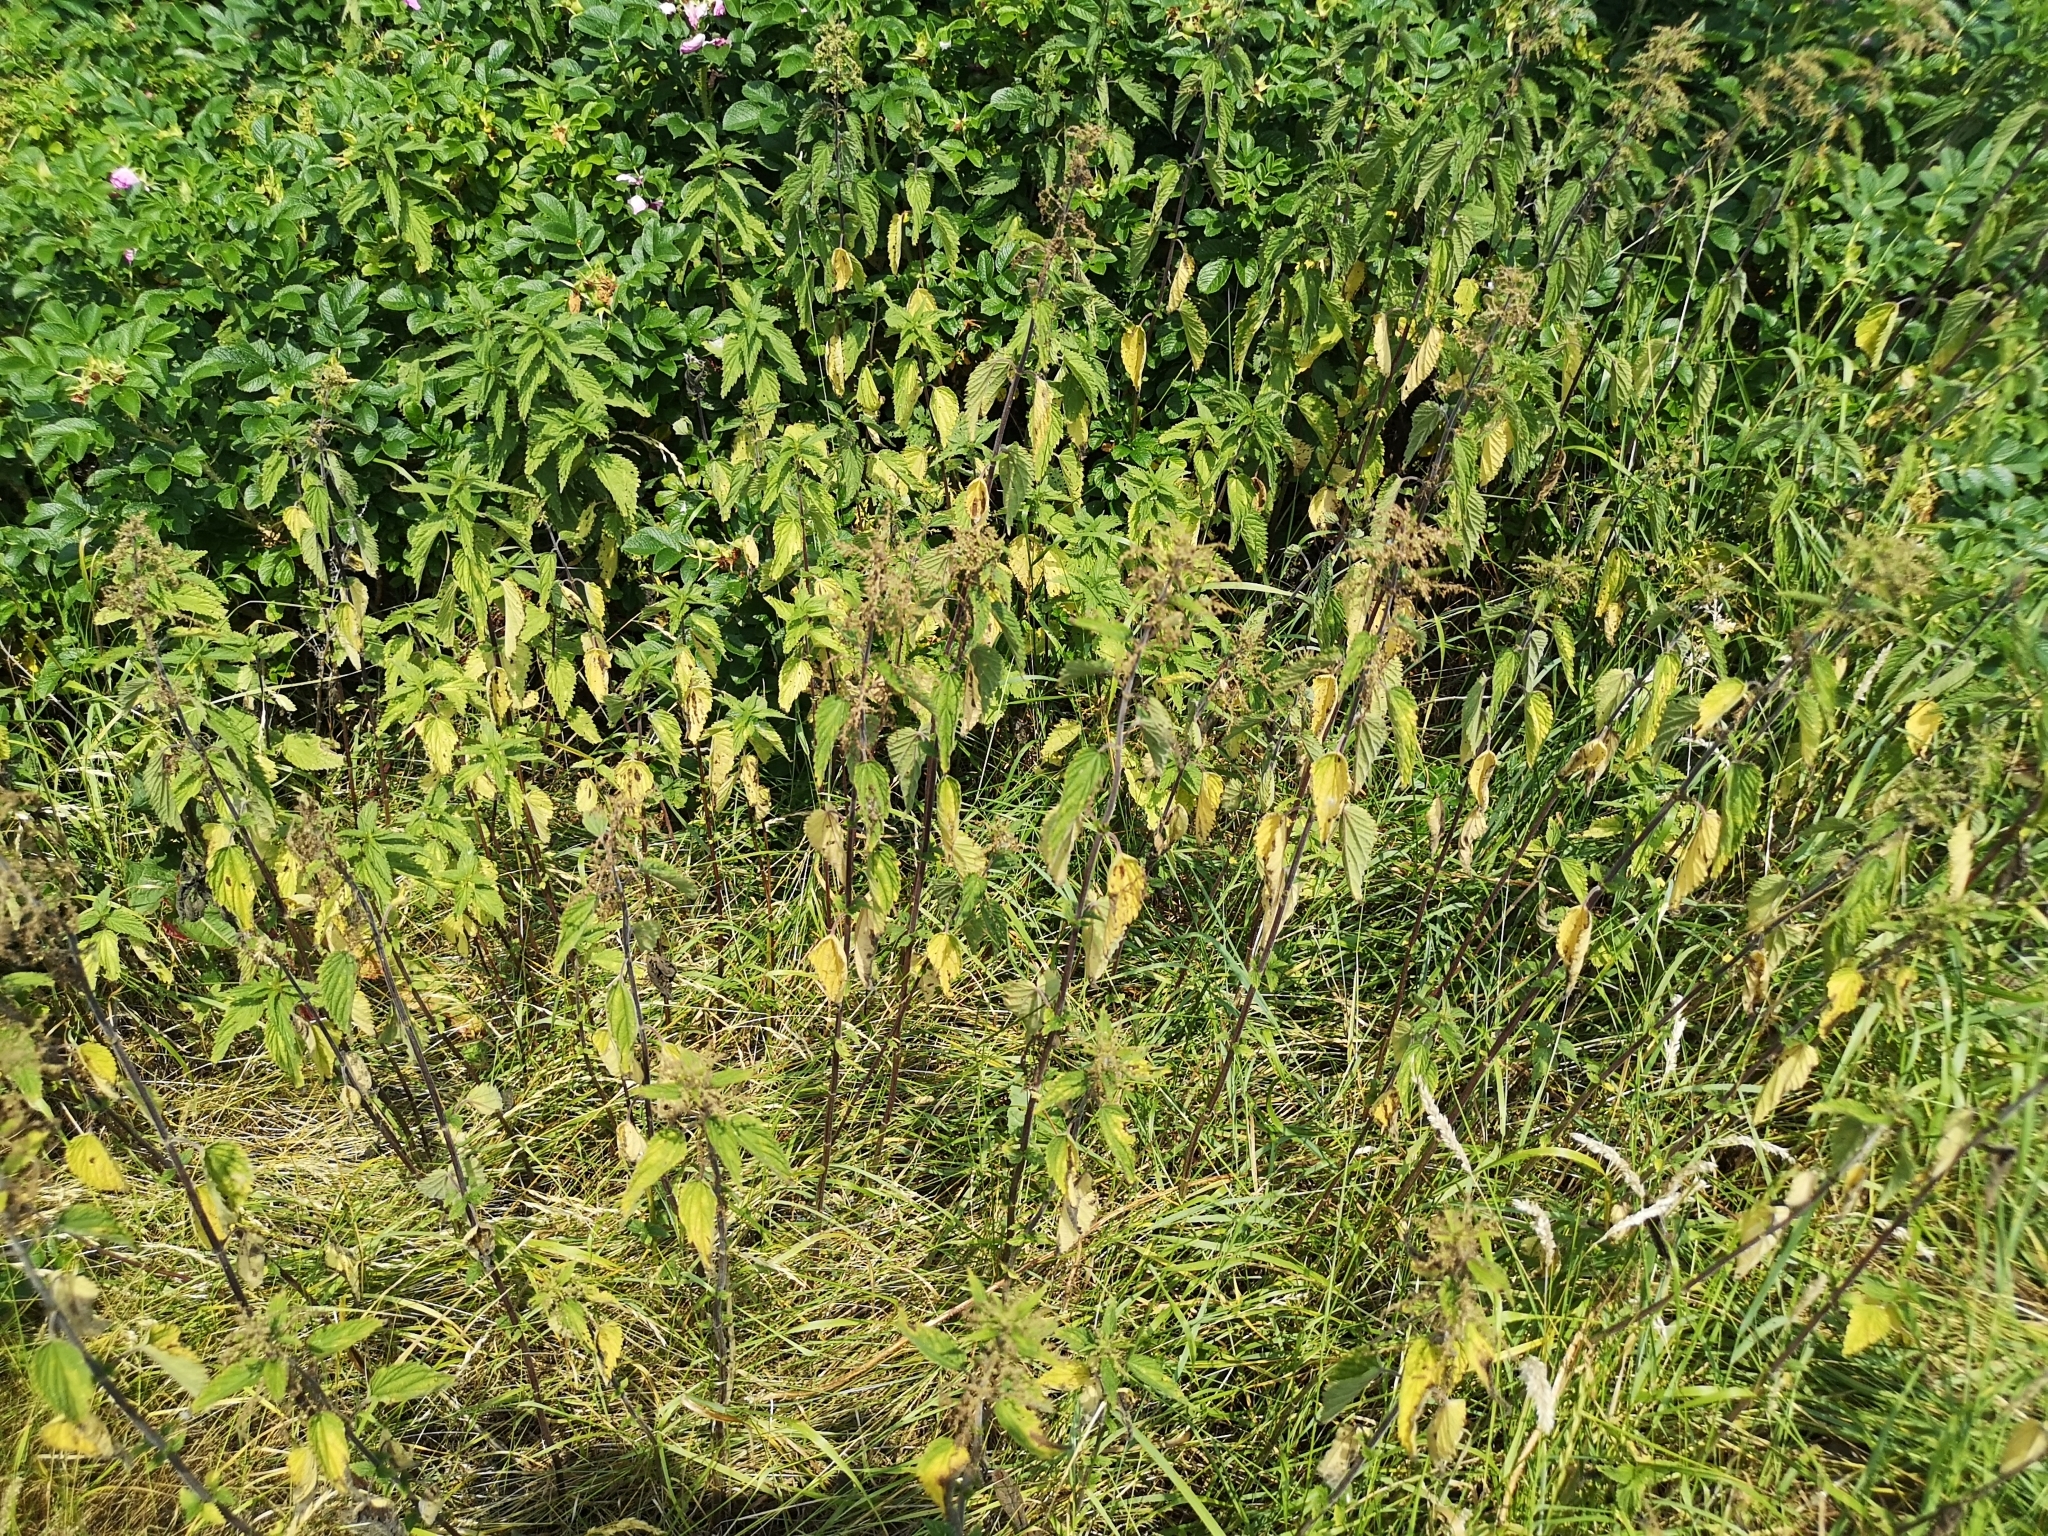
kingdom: Plantae
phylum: Tracheophyta
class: Magnoliopsida
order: Rosales
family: Urticaceae
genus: Urtica
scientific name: Urtica dioica
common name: Common nettle
